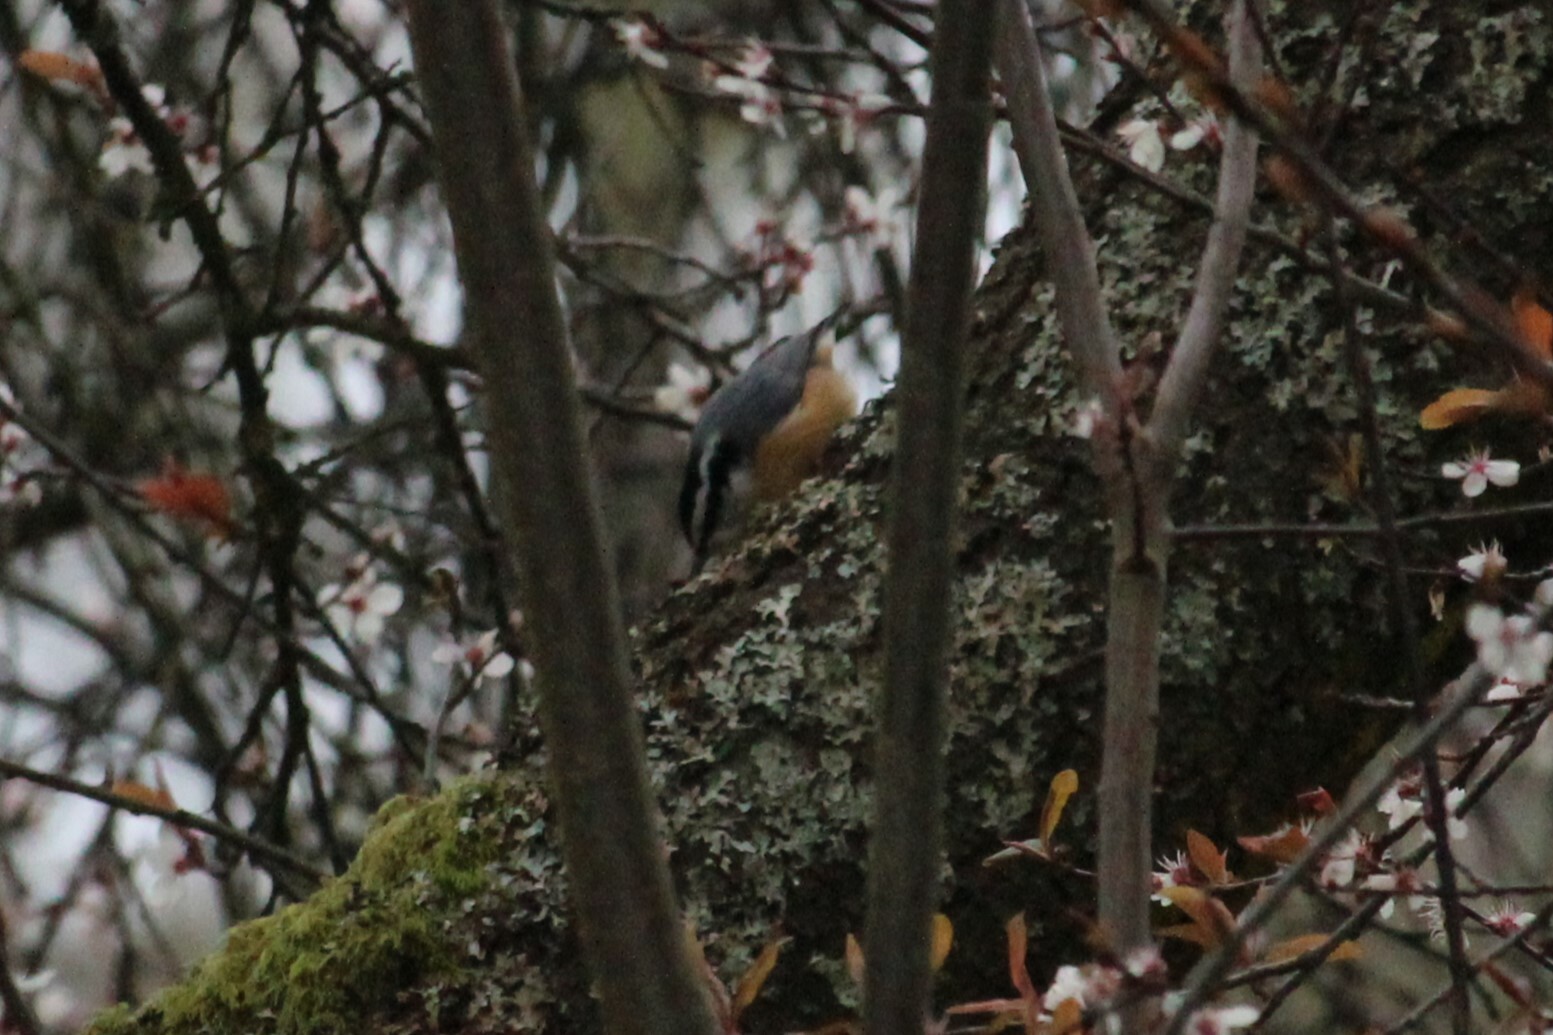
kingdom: Animalia
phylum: Chordata
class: Aves
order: Passeriformes
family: Sittidae
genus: Sitta
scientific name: Sitta canadensis
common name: Red-breasted nuthatch
